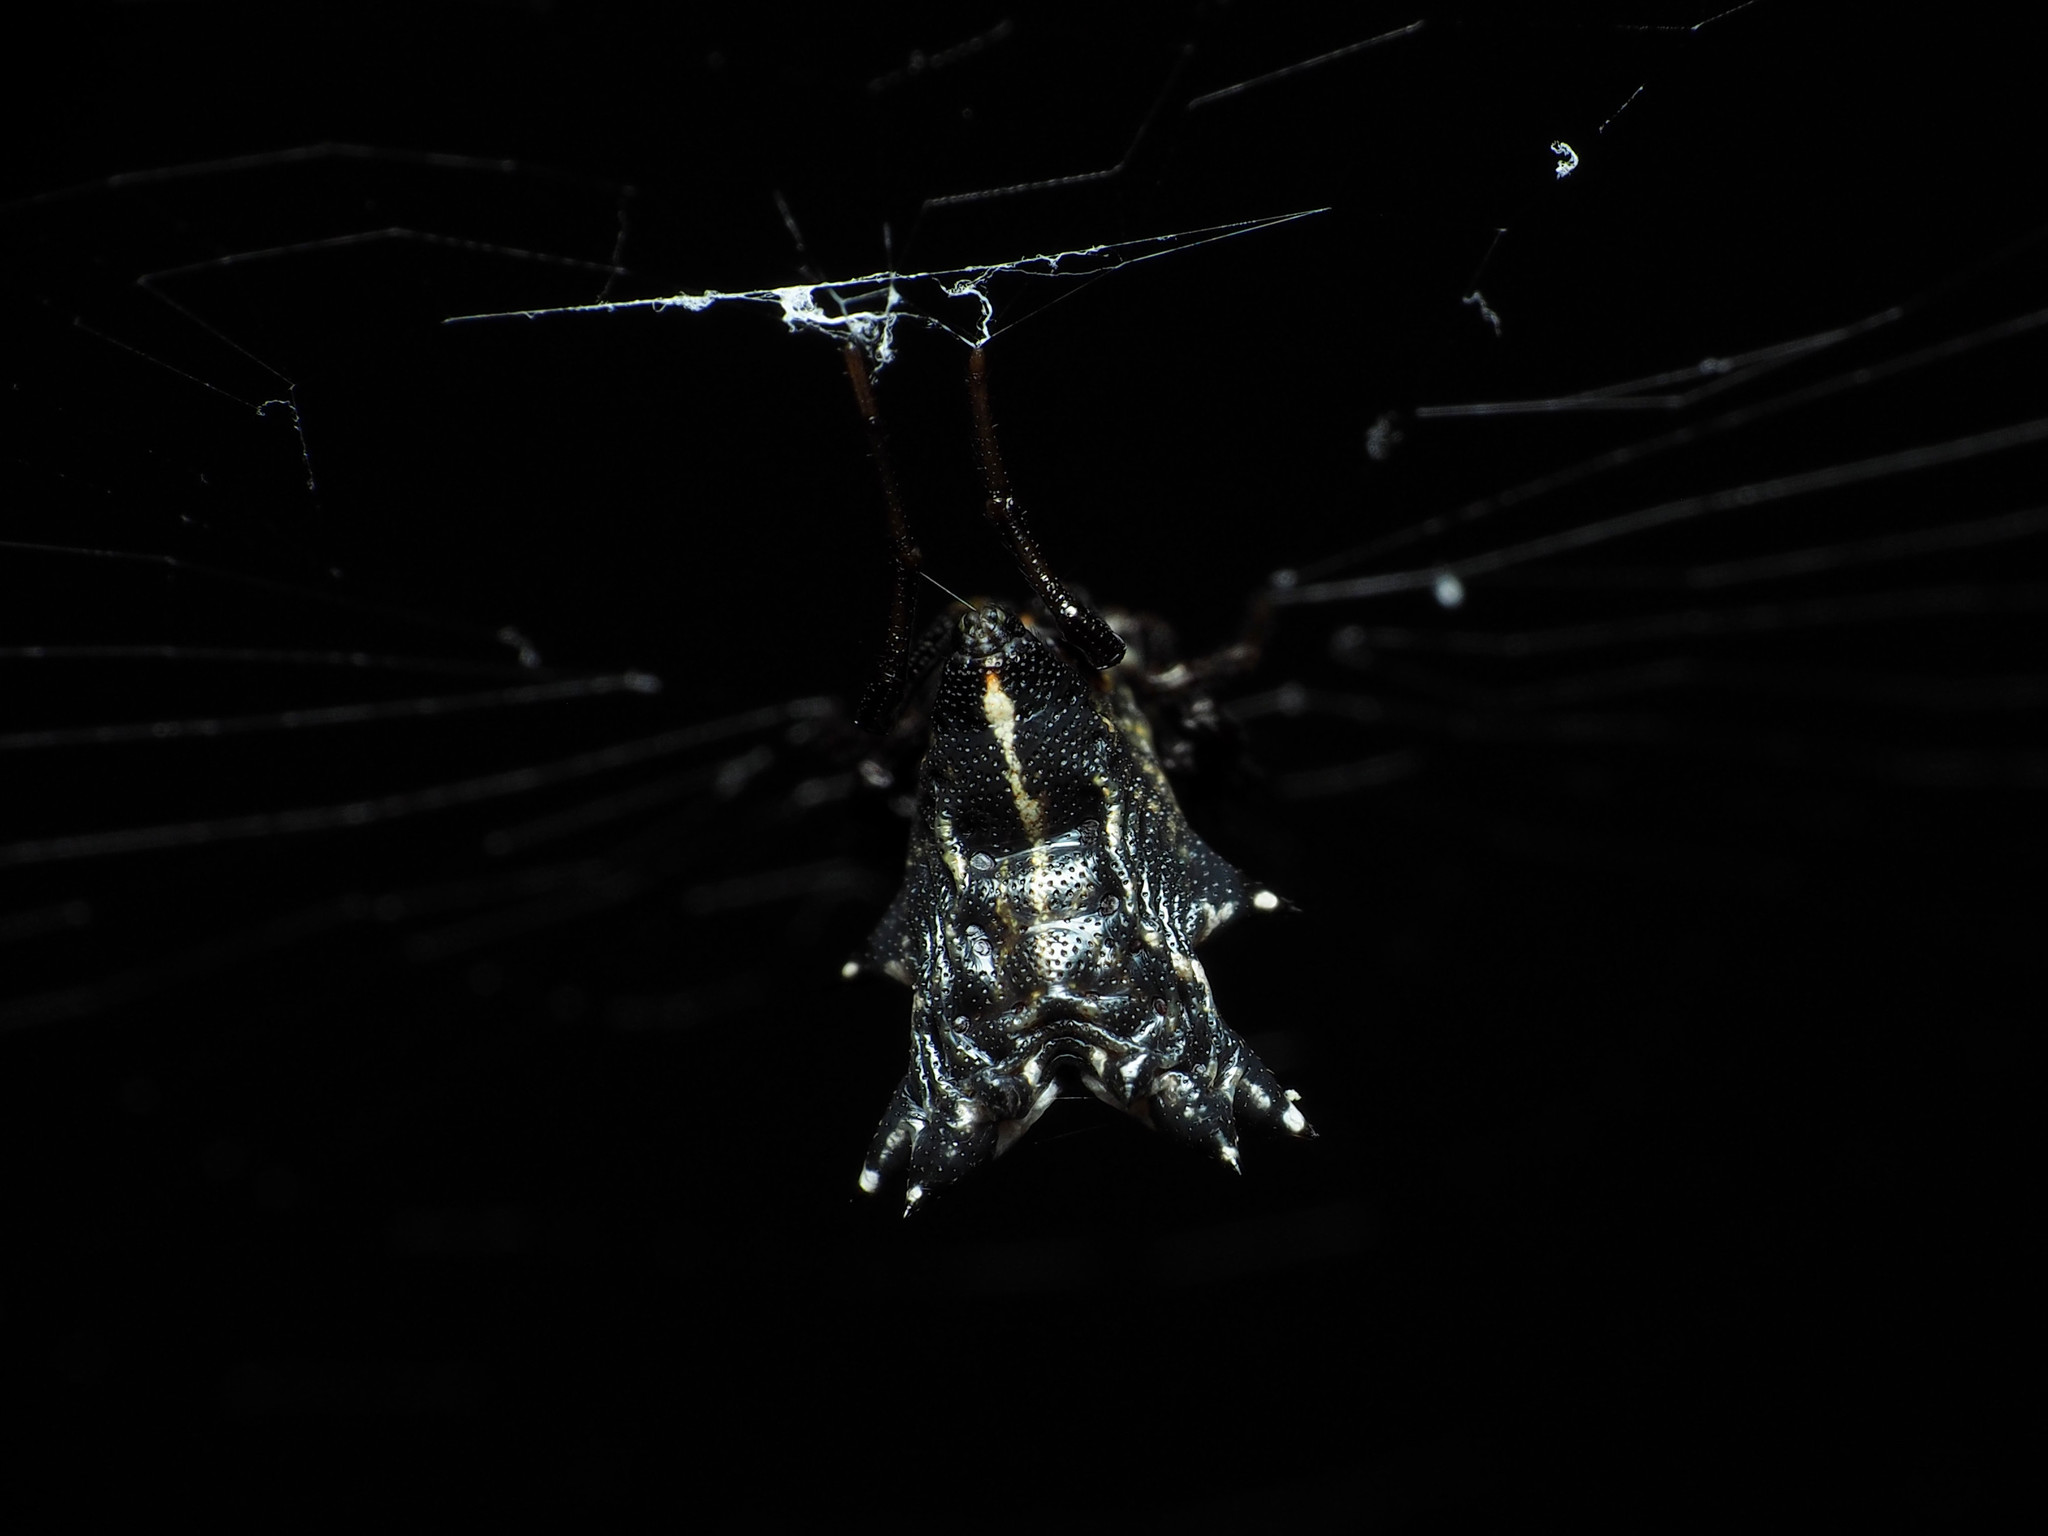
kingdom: Animalia
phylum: Arthropoda
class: Arachnida
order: Araneae
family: Araneidae
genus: Micrathena
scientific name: Micrathena gracilis
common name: Orb weavers
